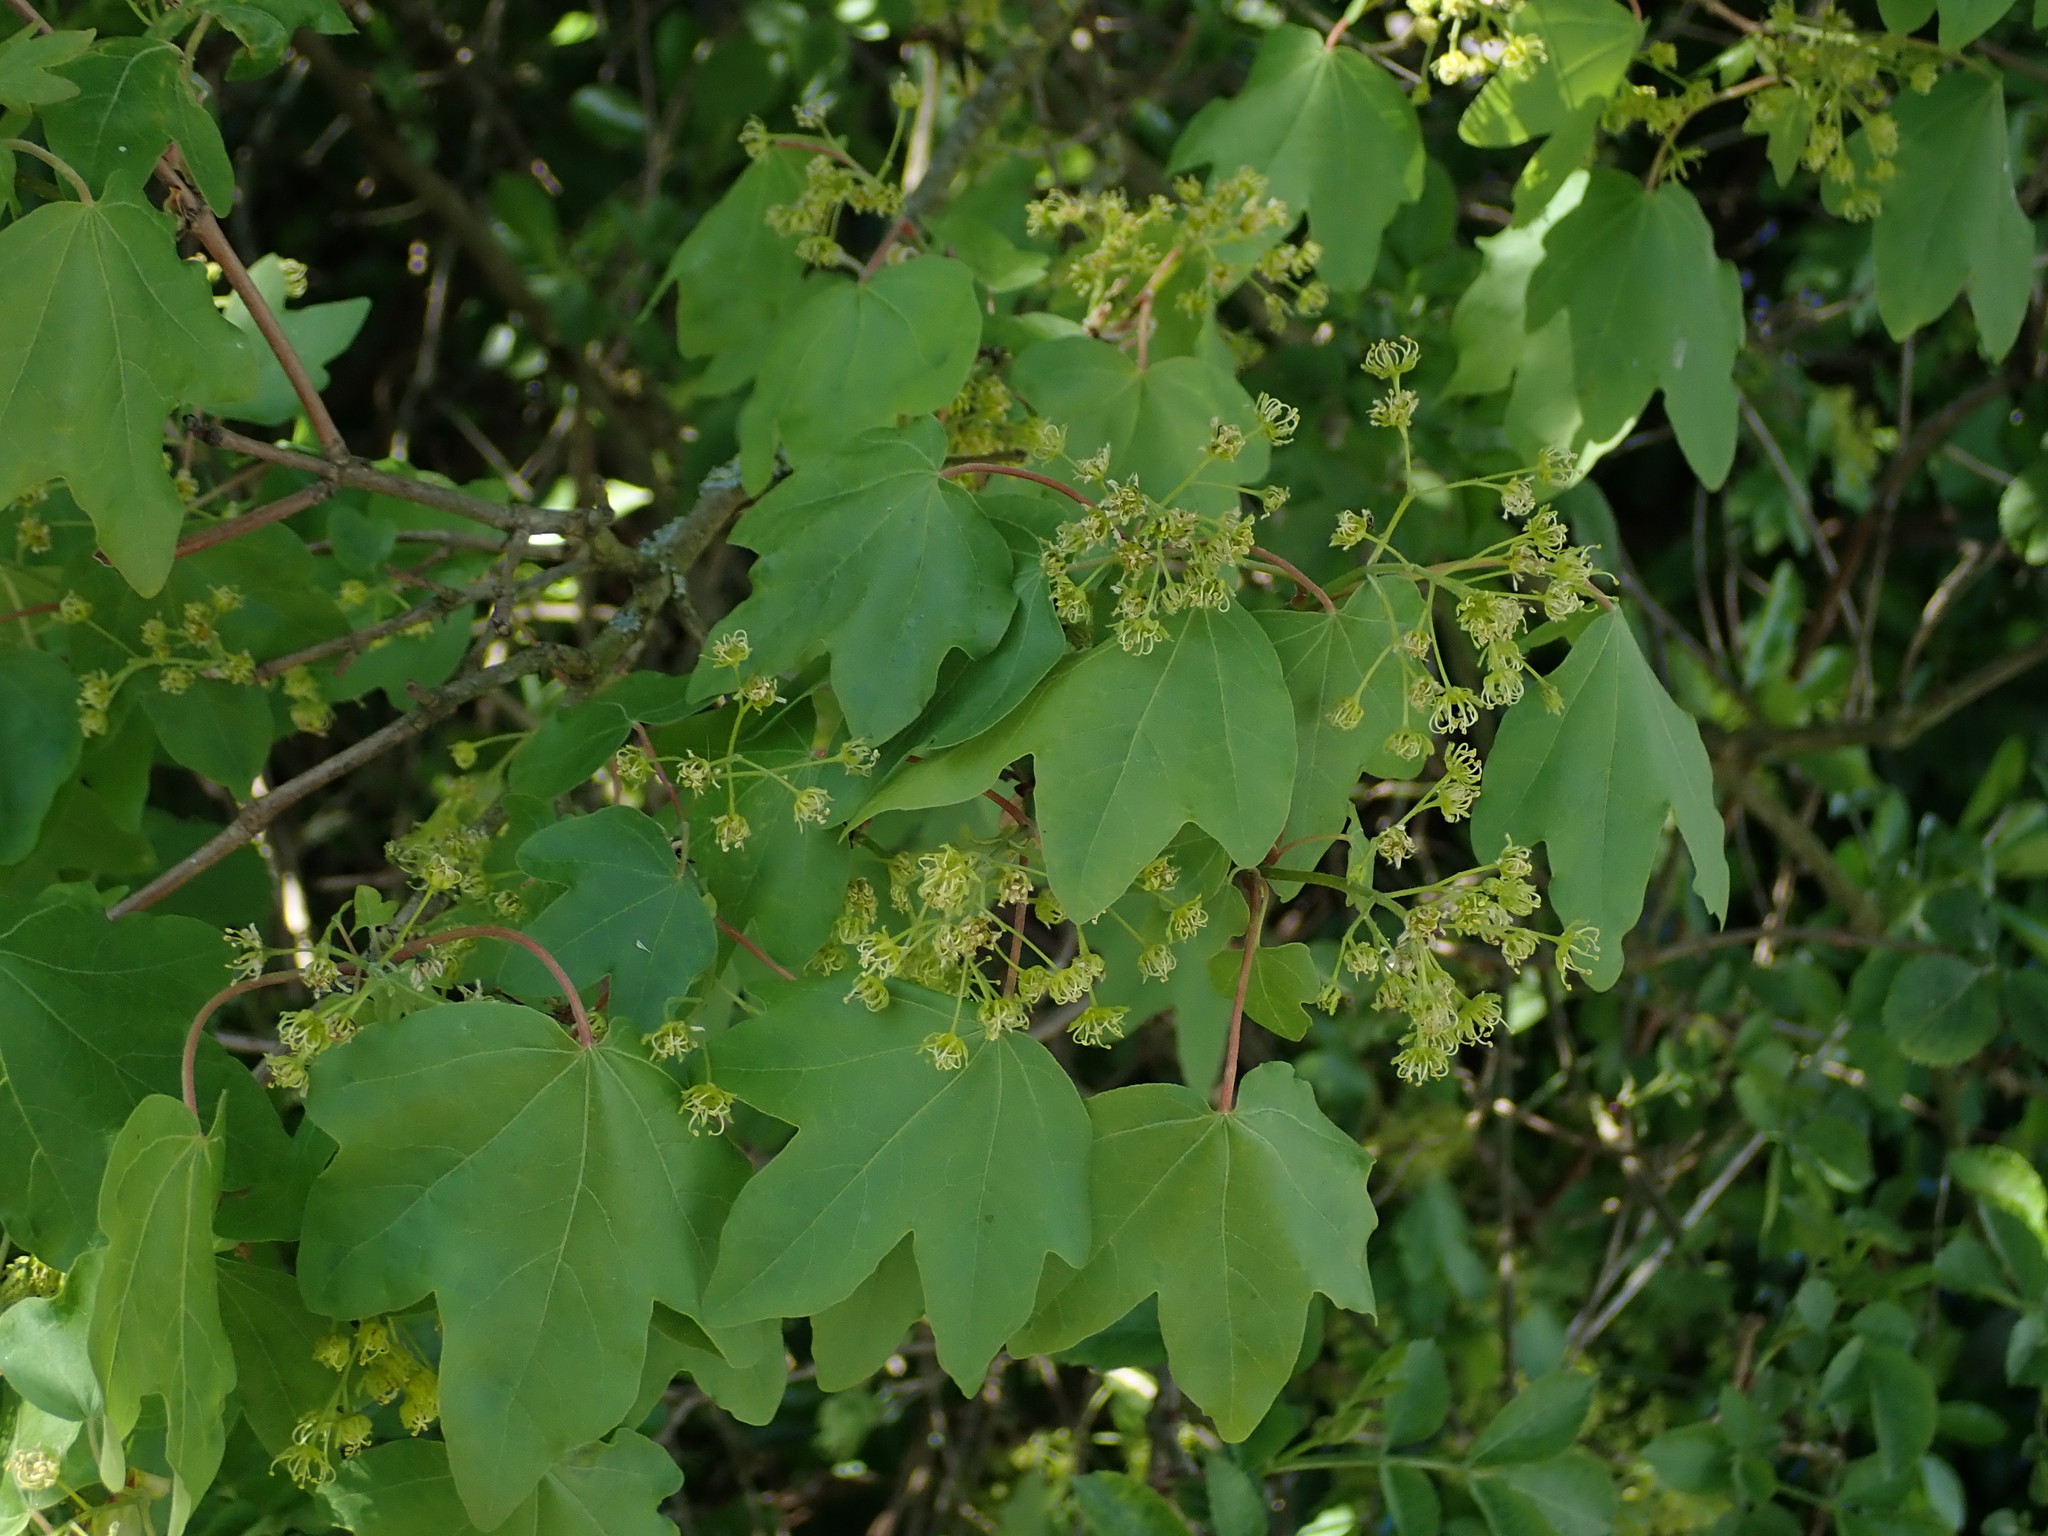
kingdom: Plantae
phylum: Tracheophyta
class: Magnoliopsida
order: Sapindales
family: Sapindaceae
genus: Acer
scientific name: Acer campestre
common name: Field maple
